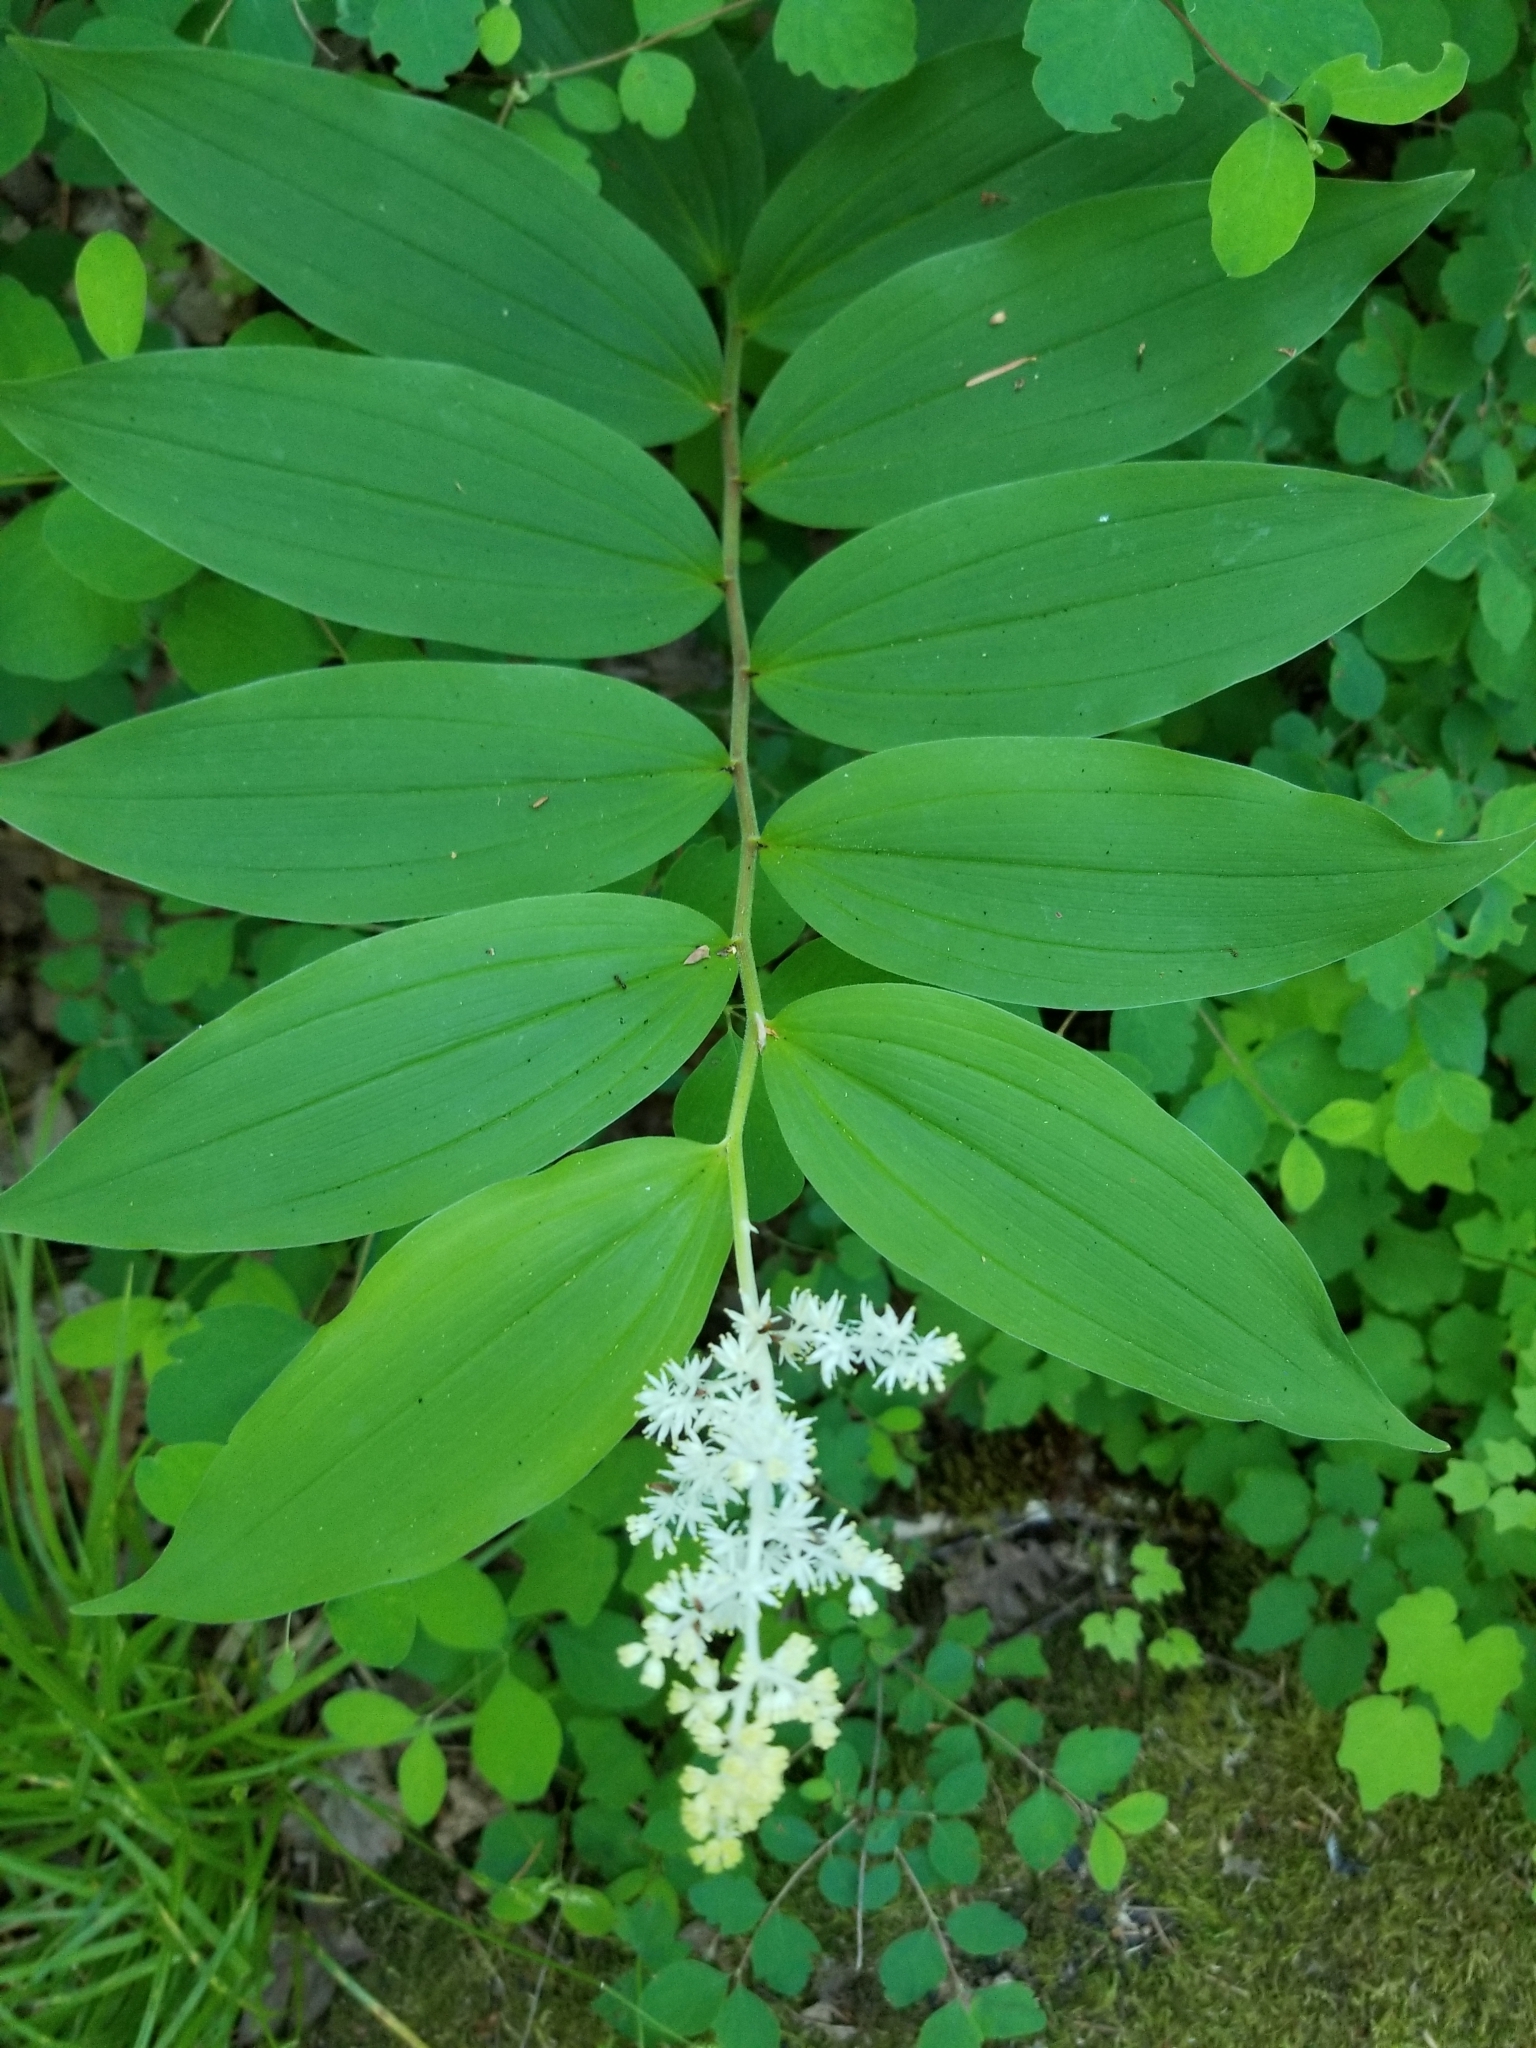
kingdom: Plantae
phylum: Tracheophyta
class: Liliopsida
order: Asparagales
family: Asparagaceae
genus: Maianthemum
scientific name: Maianthemum racemosum
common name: False spikenard
